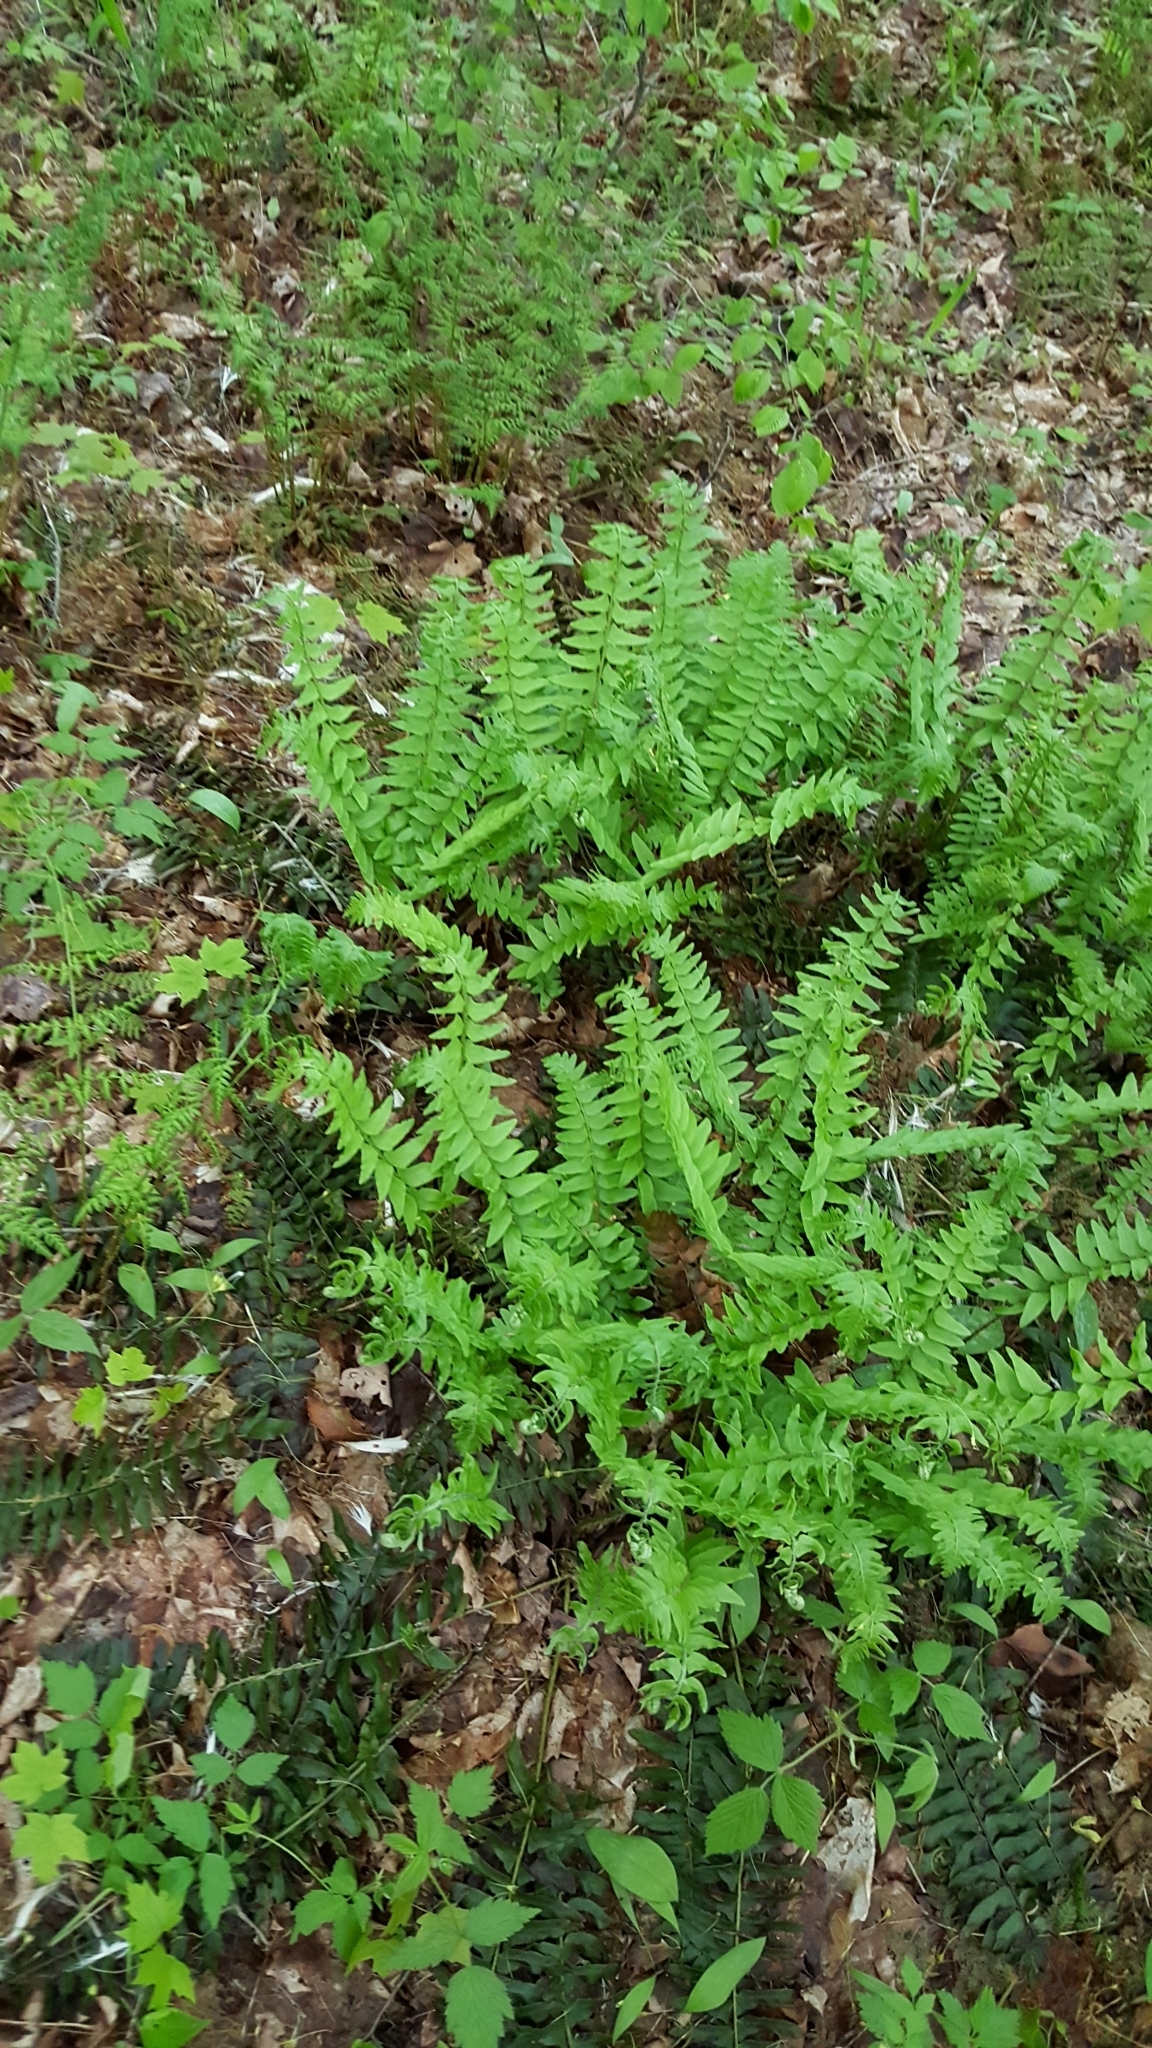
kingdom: Plantae
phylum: Tracheophyta
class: Polypodiopsida
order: Polypodiales
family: Dryopteridaceae
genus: Polystichum
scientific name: Polystichum acrostichoides
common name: Christmas fern
